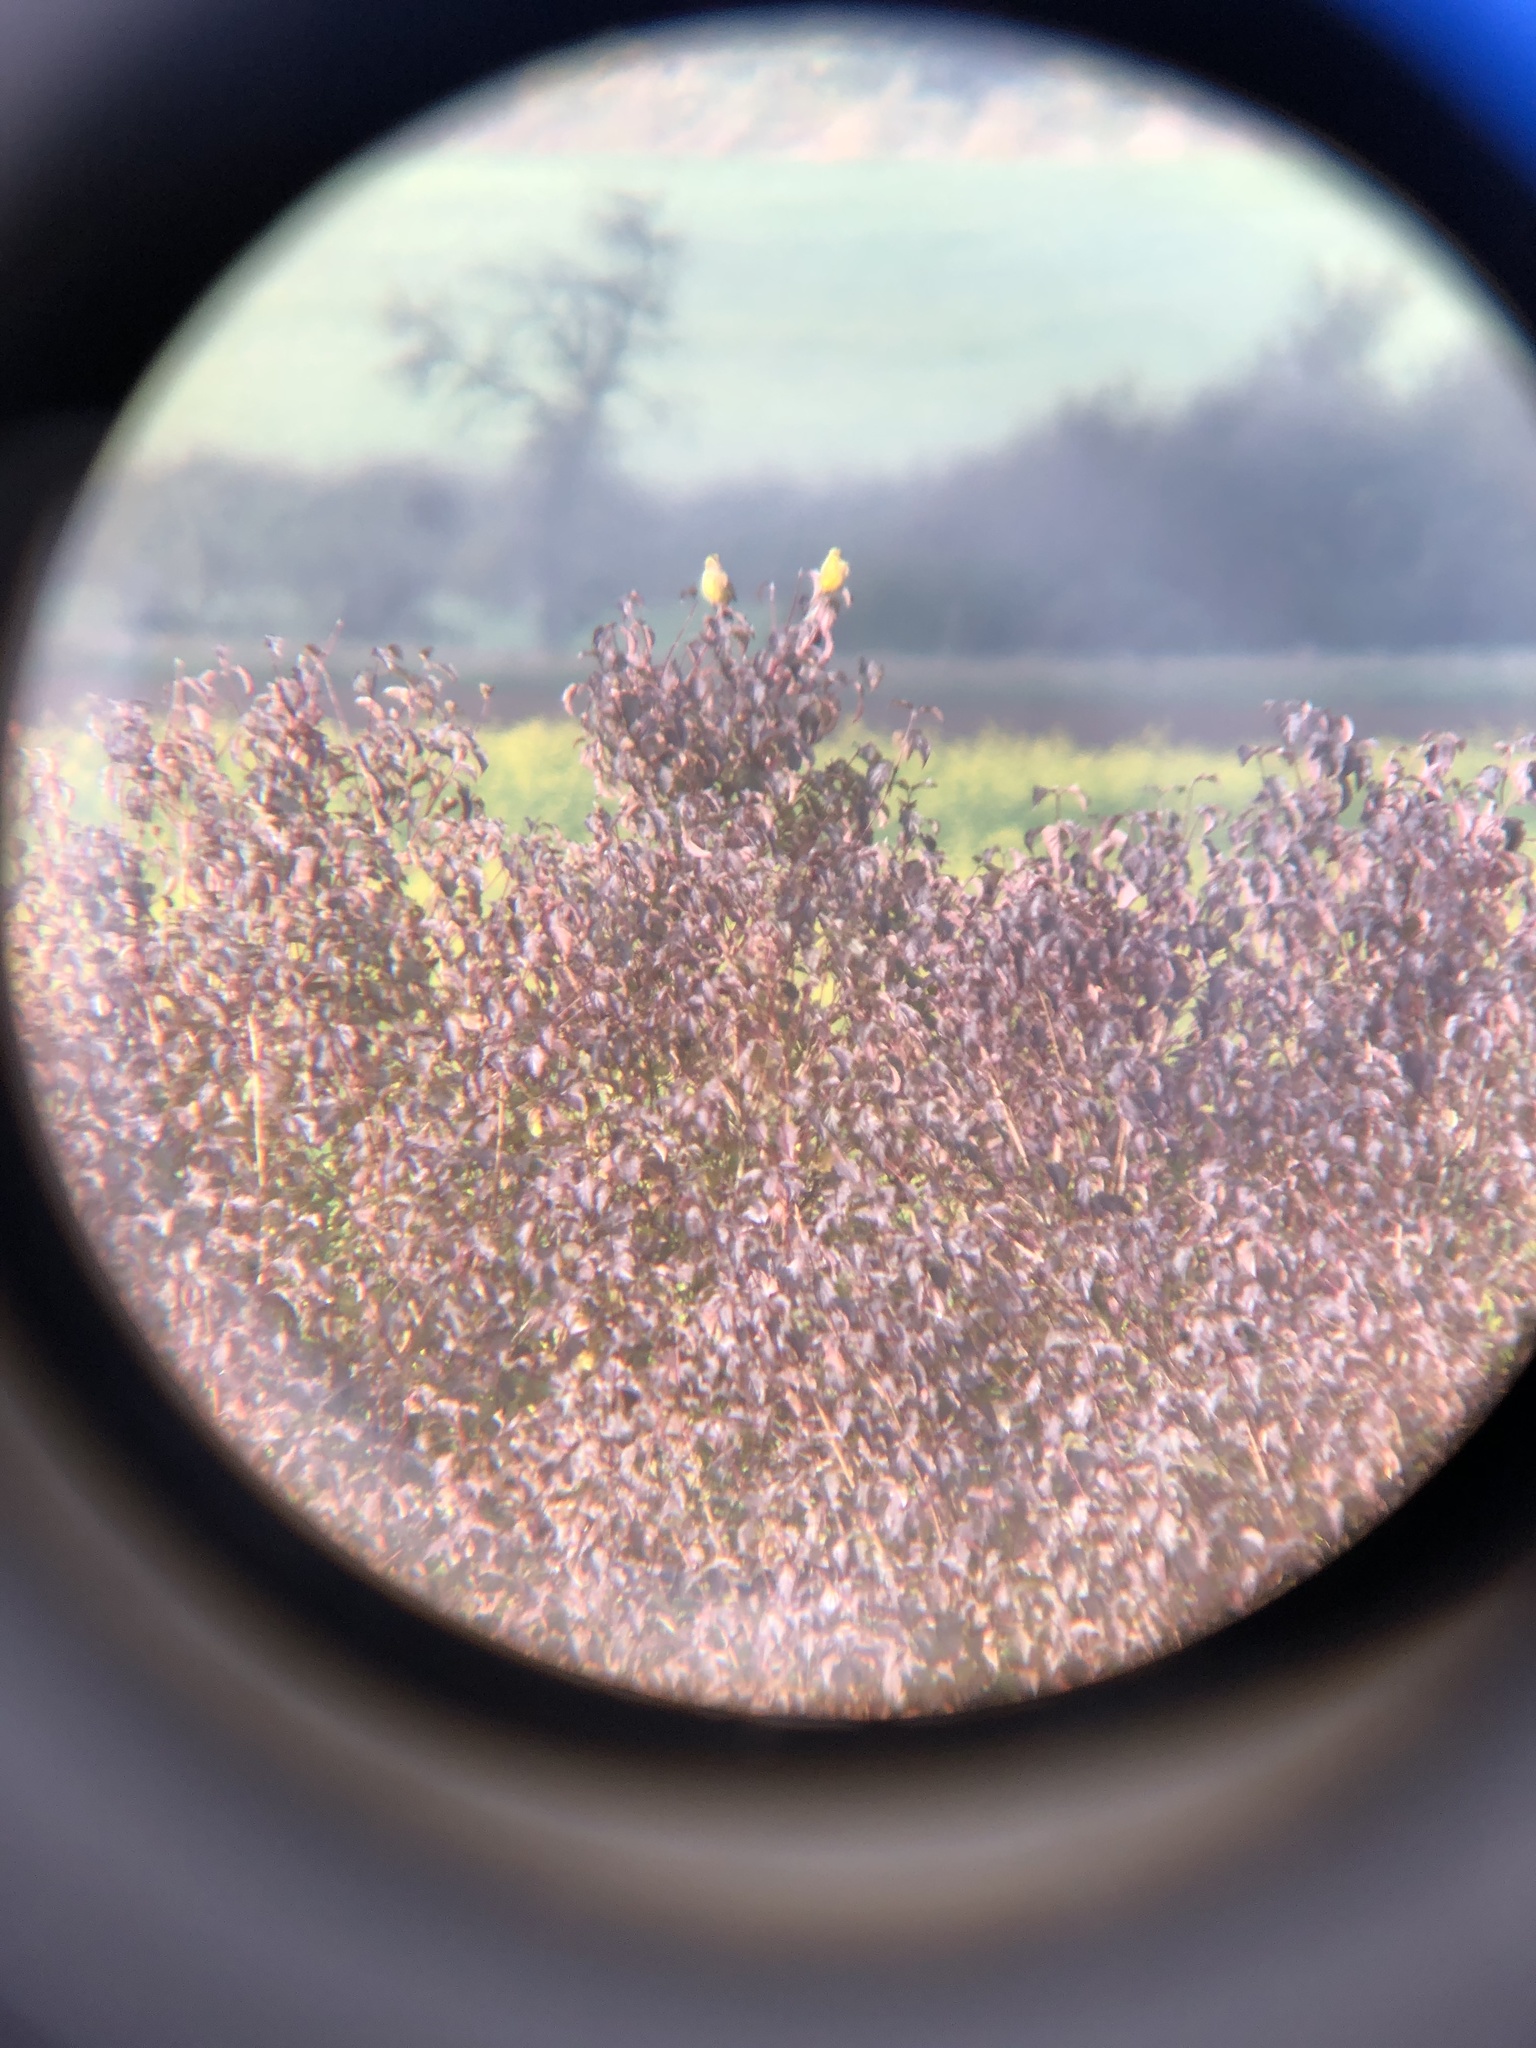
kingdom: Animalia
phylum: Chordata
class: Aves
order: Passeriformes
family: Emberizidae
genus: Emberiza
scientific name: Emberiza citrinella
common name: Yellowhammer
